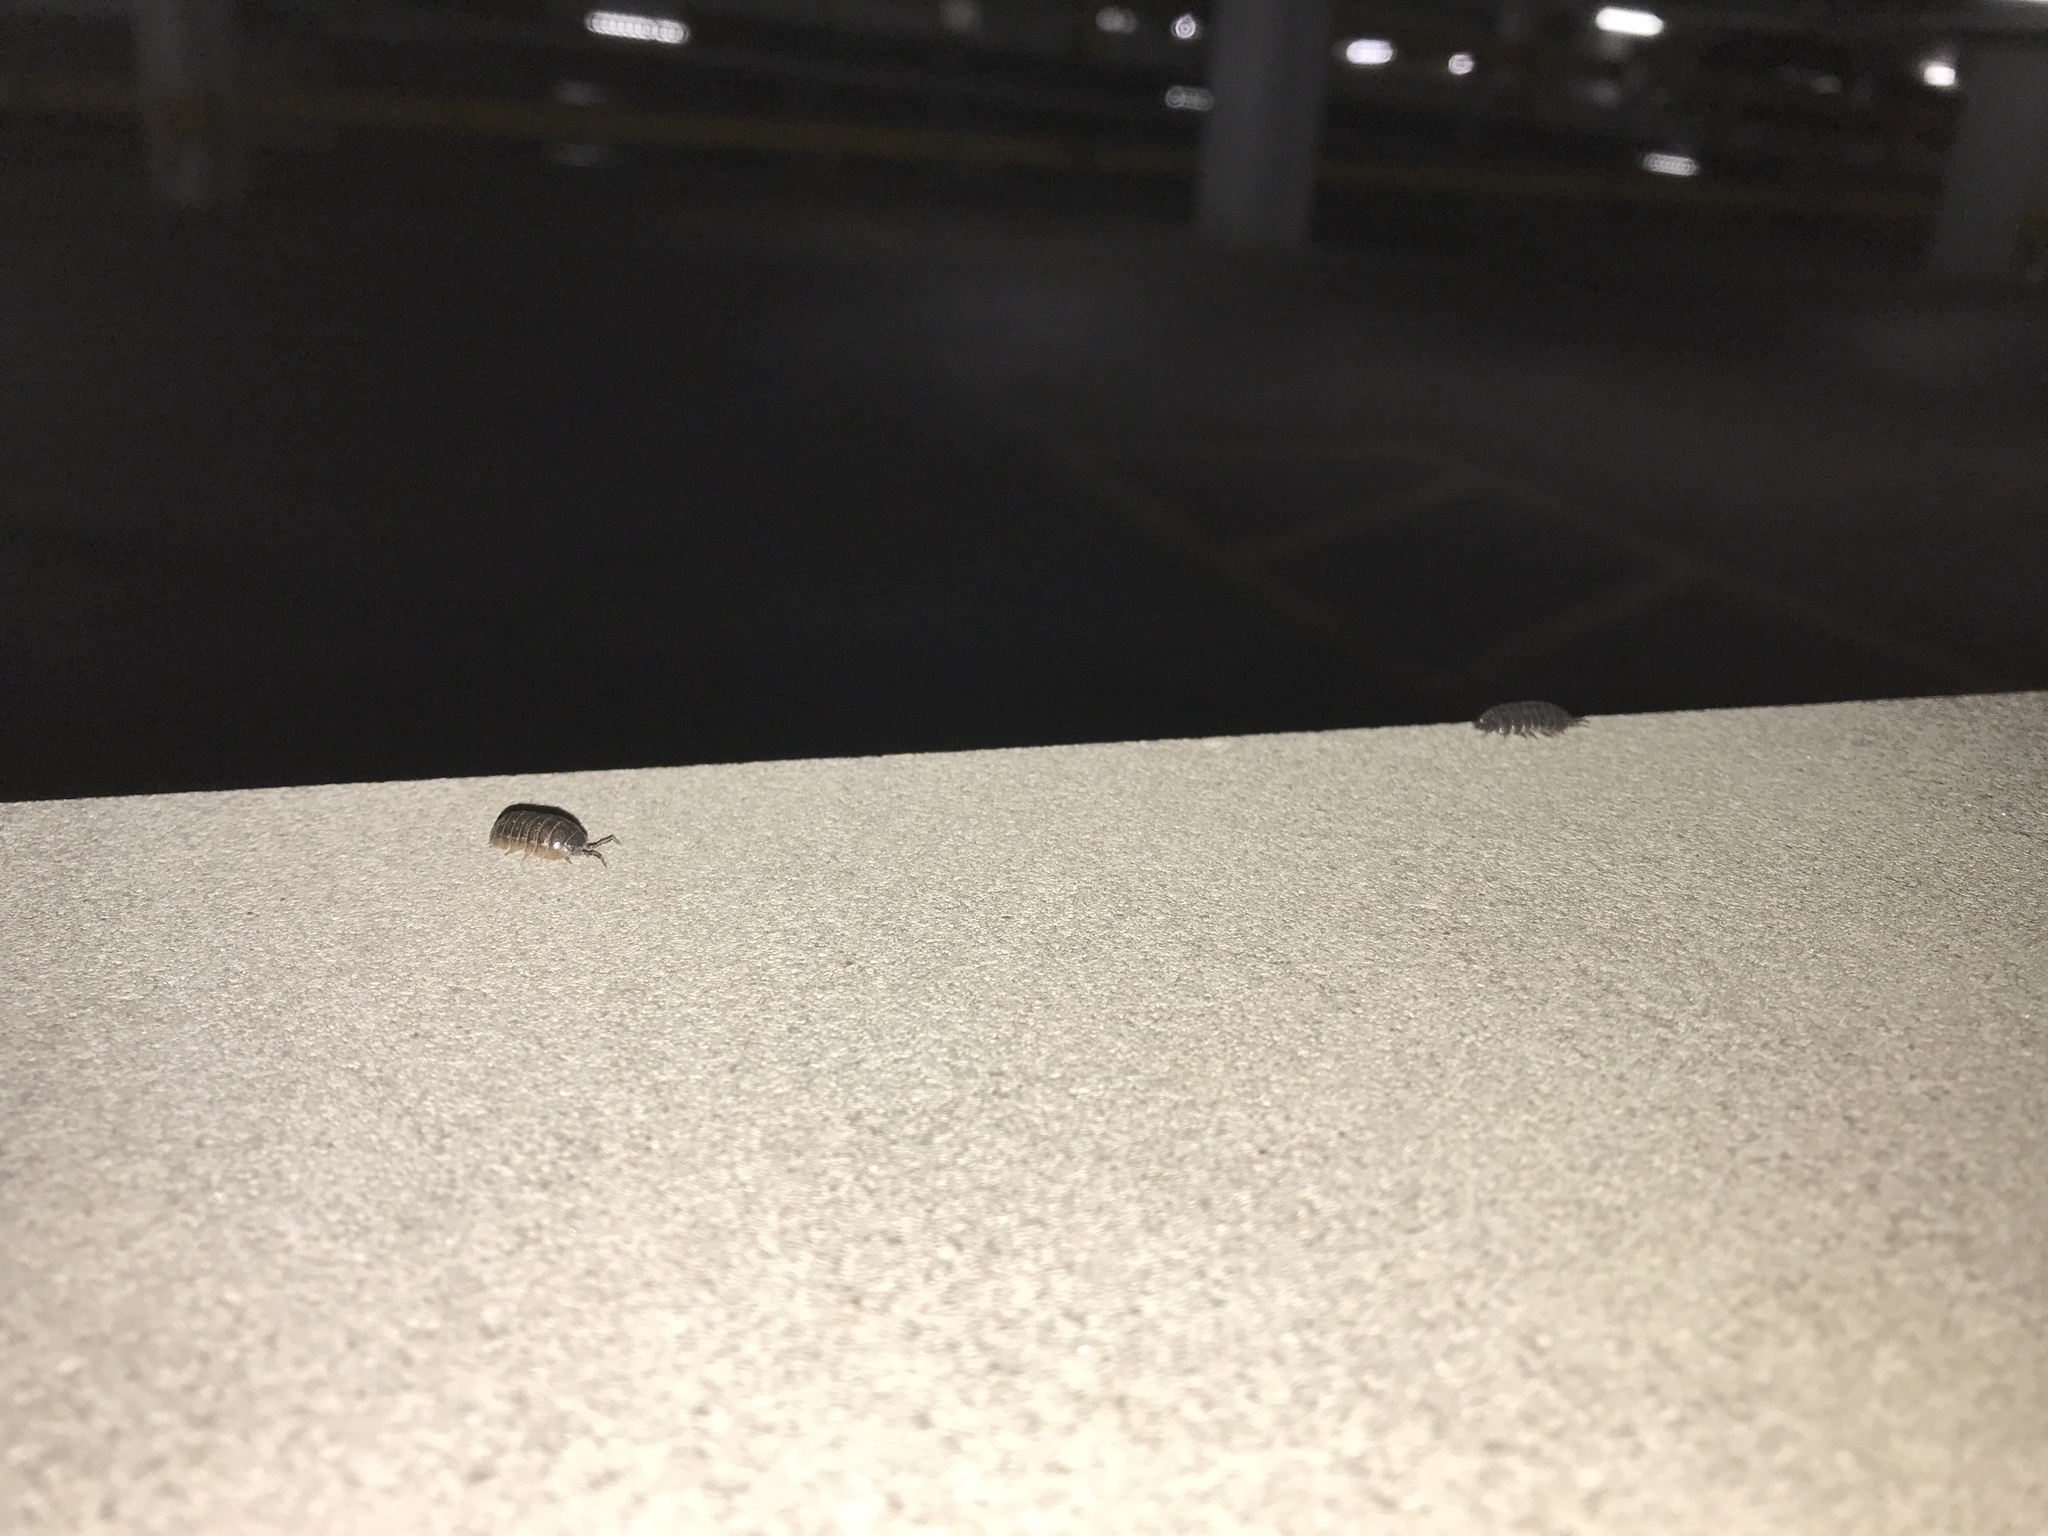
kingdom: Animalia
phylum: Arthropoda
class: Malacostraca
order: Isopoda
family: Armadillidiidae
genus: Armadillidium
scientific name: Armadillidium vulgare
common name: Common pill woodlouse
